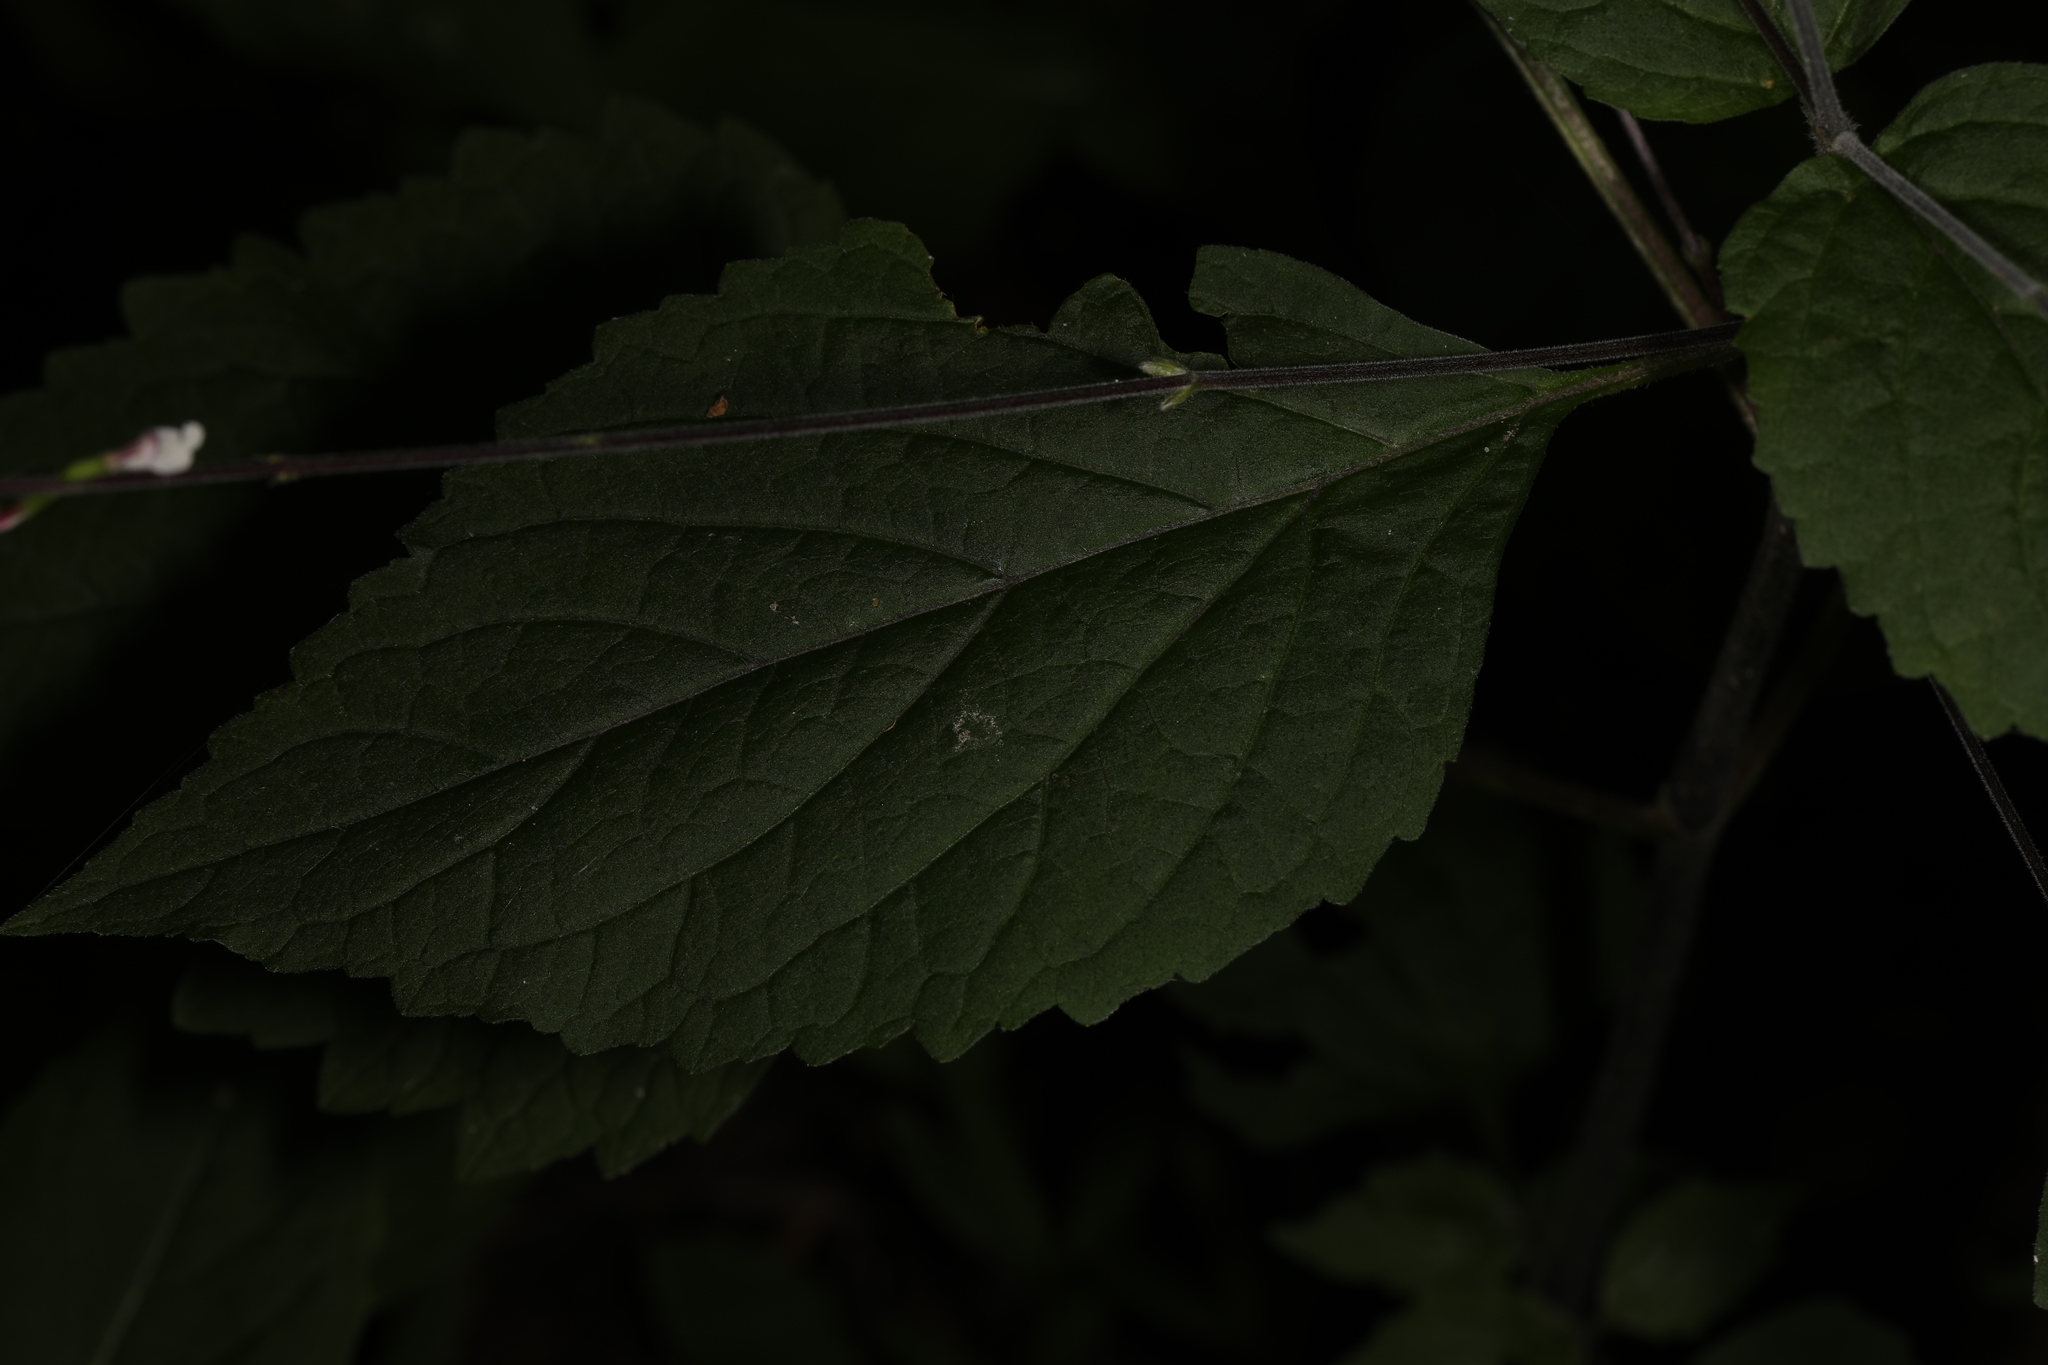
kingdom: Plantae
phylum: Tracheophyta
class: Magnoliopsida
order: Lamiales
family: Phrymaceae
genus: Phryma
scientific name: Phryma leptostachya
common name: American lopseed
